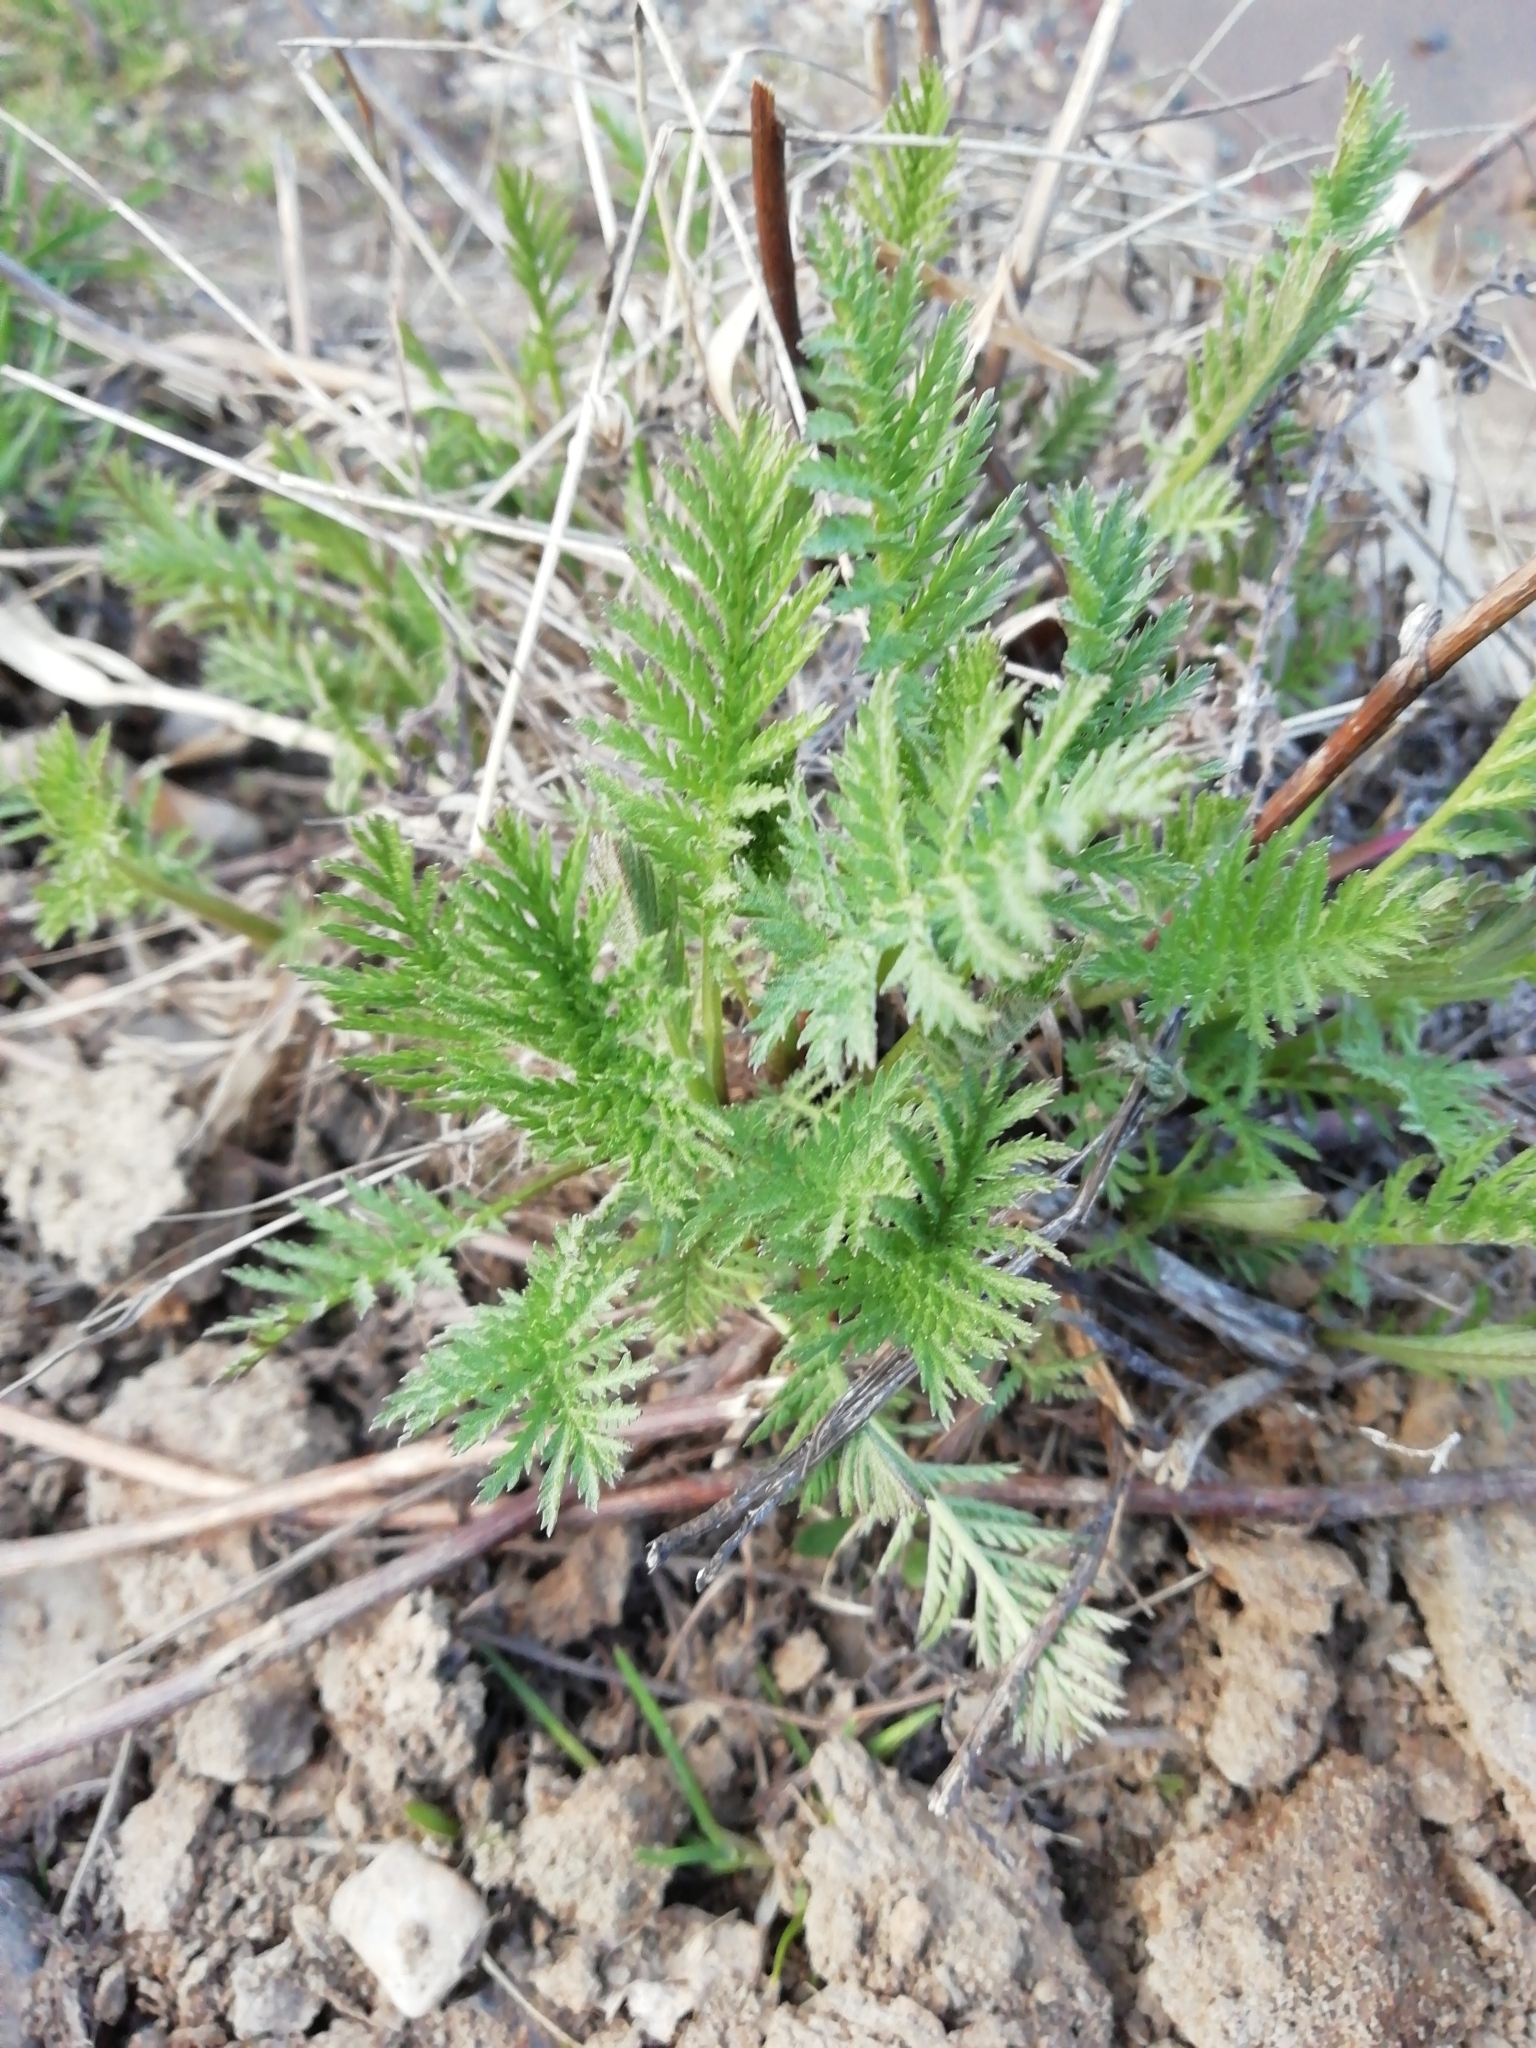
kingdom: Plantae
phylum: Tracheophyta
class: Magnoliopsida
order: Asterales
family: Asteraceae
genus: Tanacetum
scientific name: Tanacetum vulgare
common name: Common tansy
